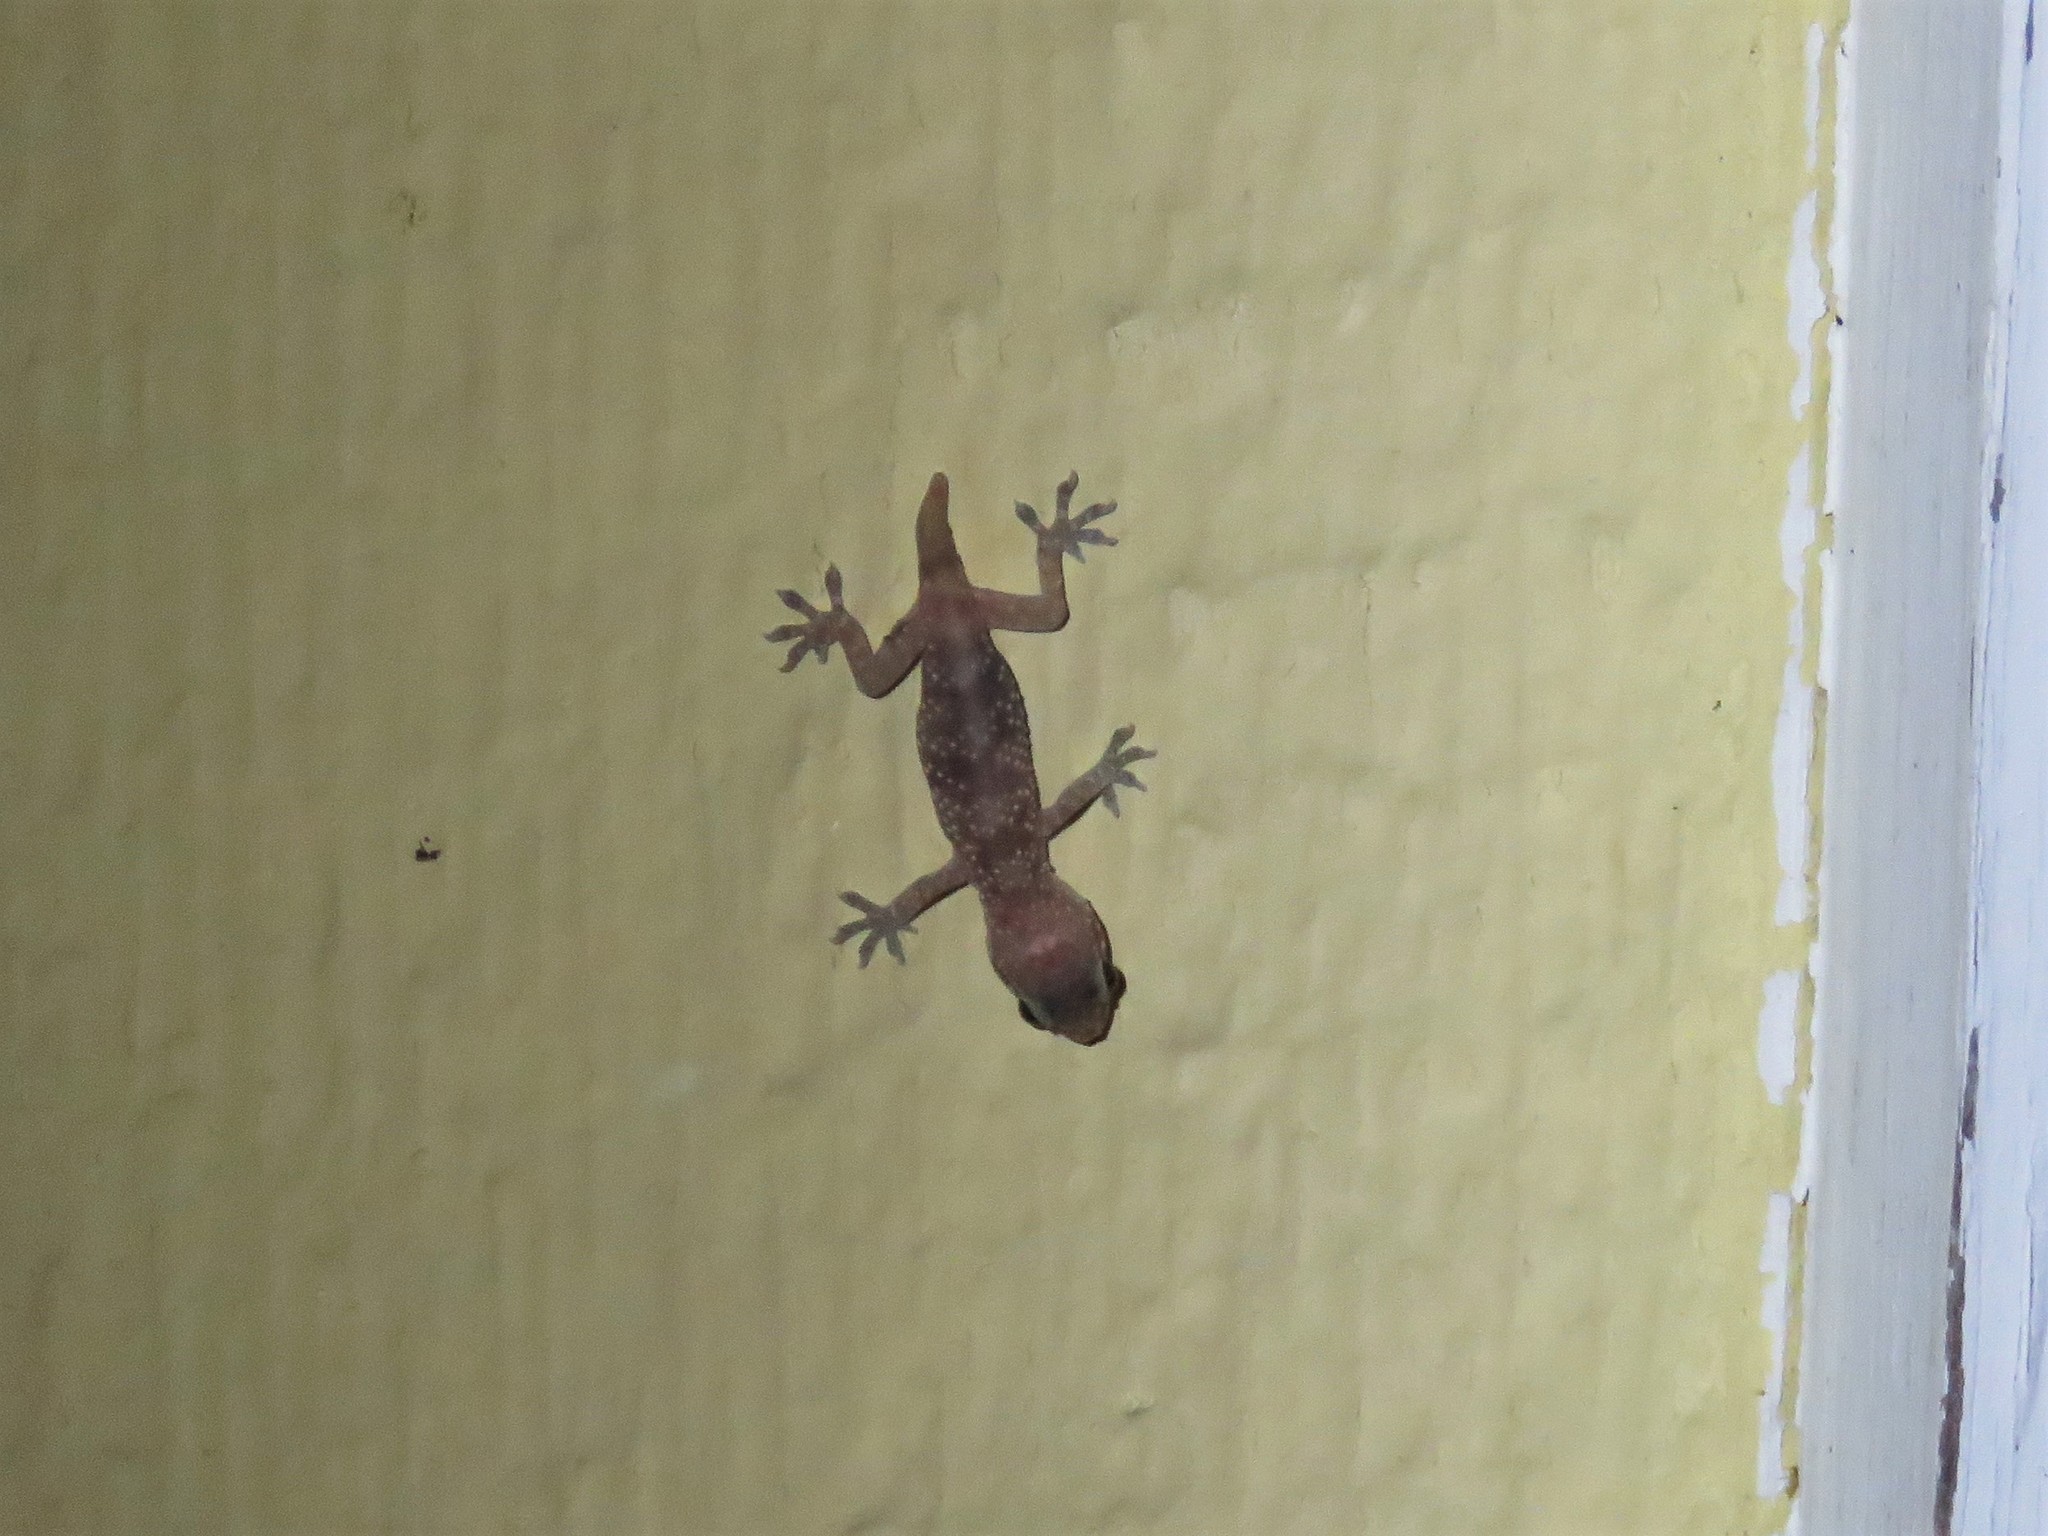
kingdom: Animalia
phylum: Chordata
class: Squamata
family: Gekkonidae
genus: Hemidactylus
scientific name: Hemidactylus turcicus
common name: Turkish gecko
